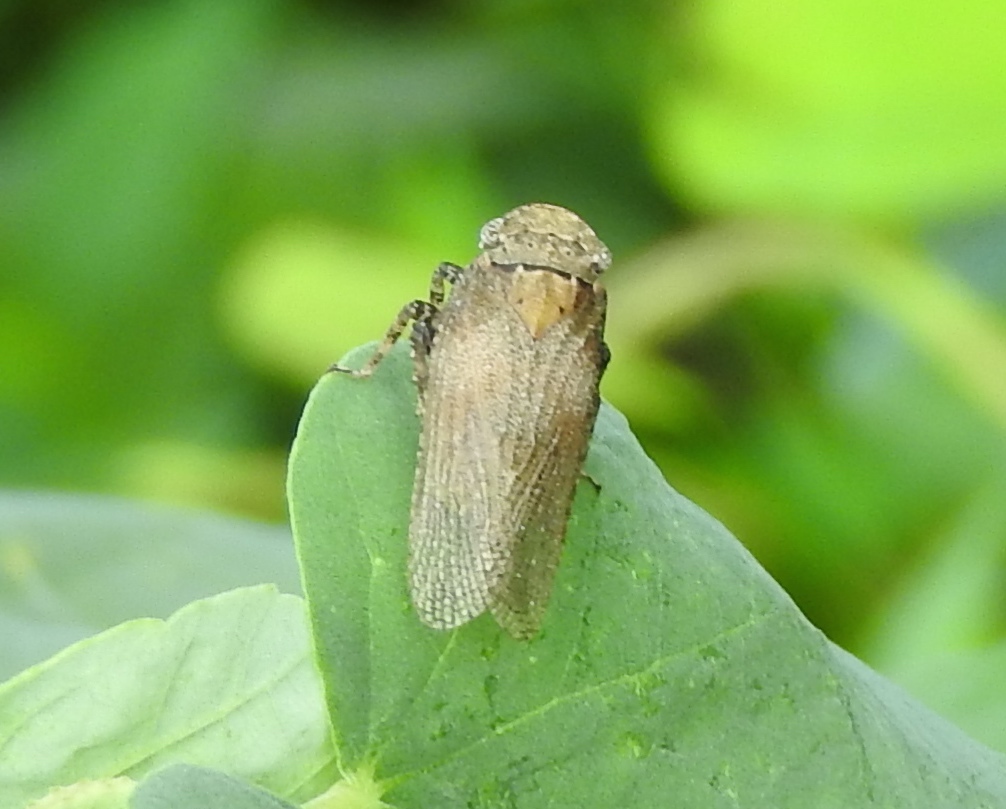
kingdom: Animalia
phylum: Arthropoda
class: Insecta
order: Hemiptera
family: Fulgoridae
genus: Cyrpoptus
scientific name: Cyrpoptus
